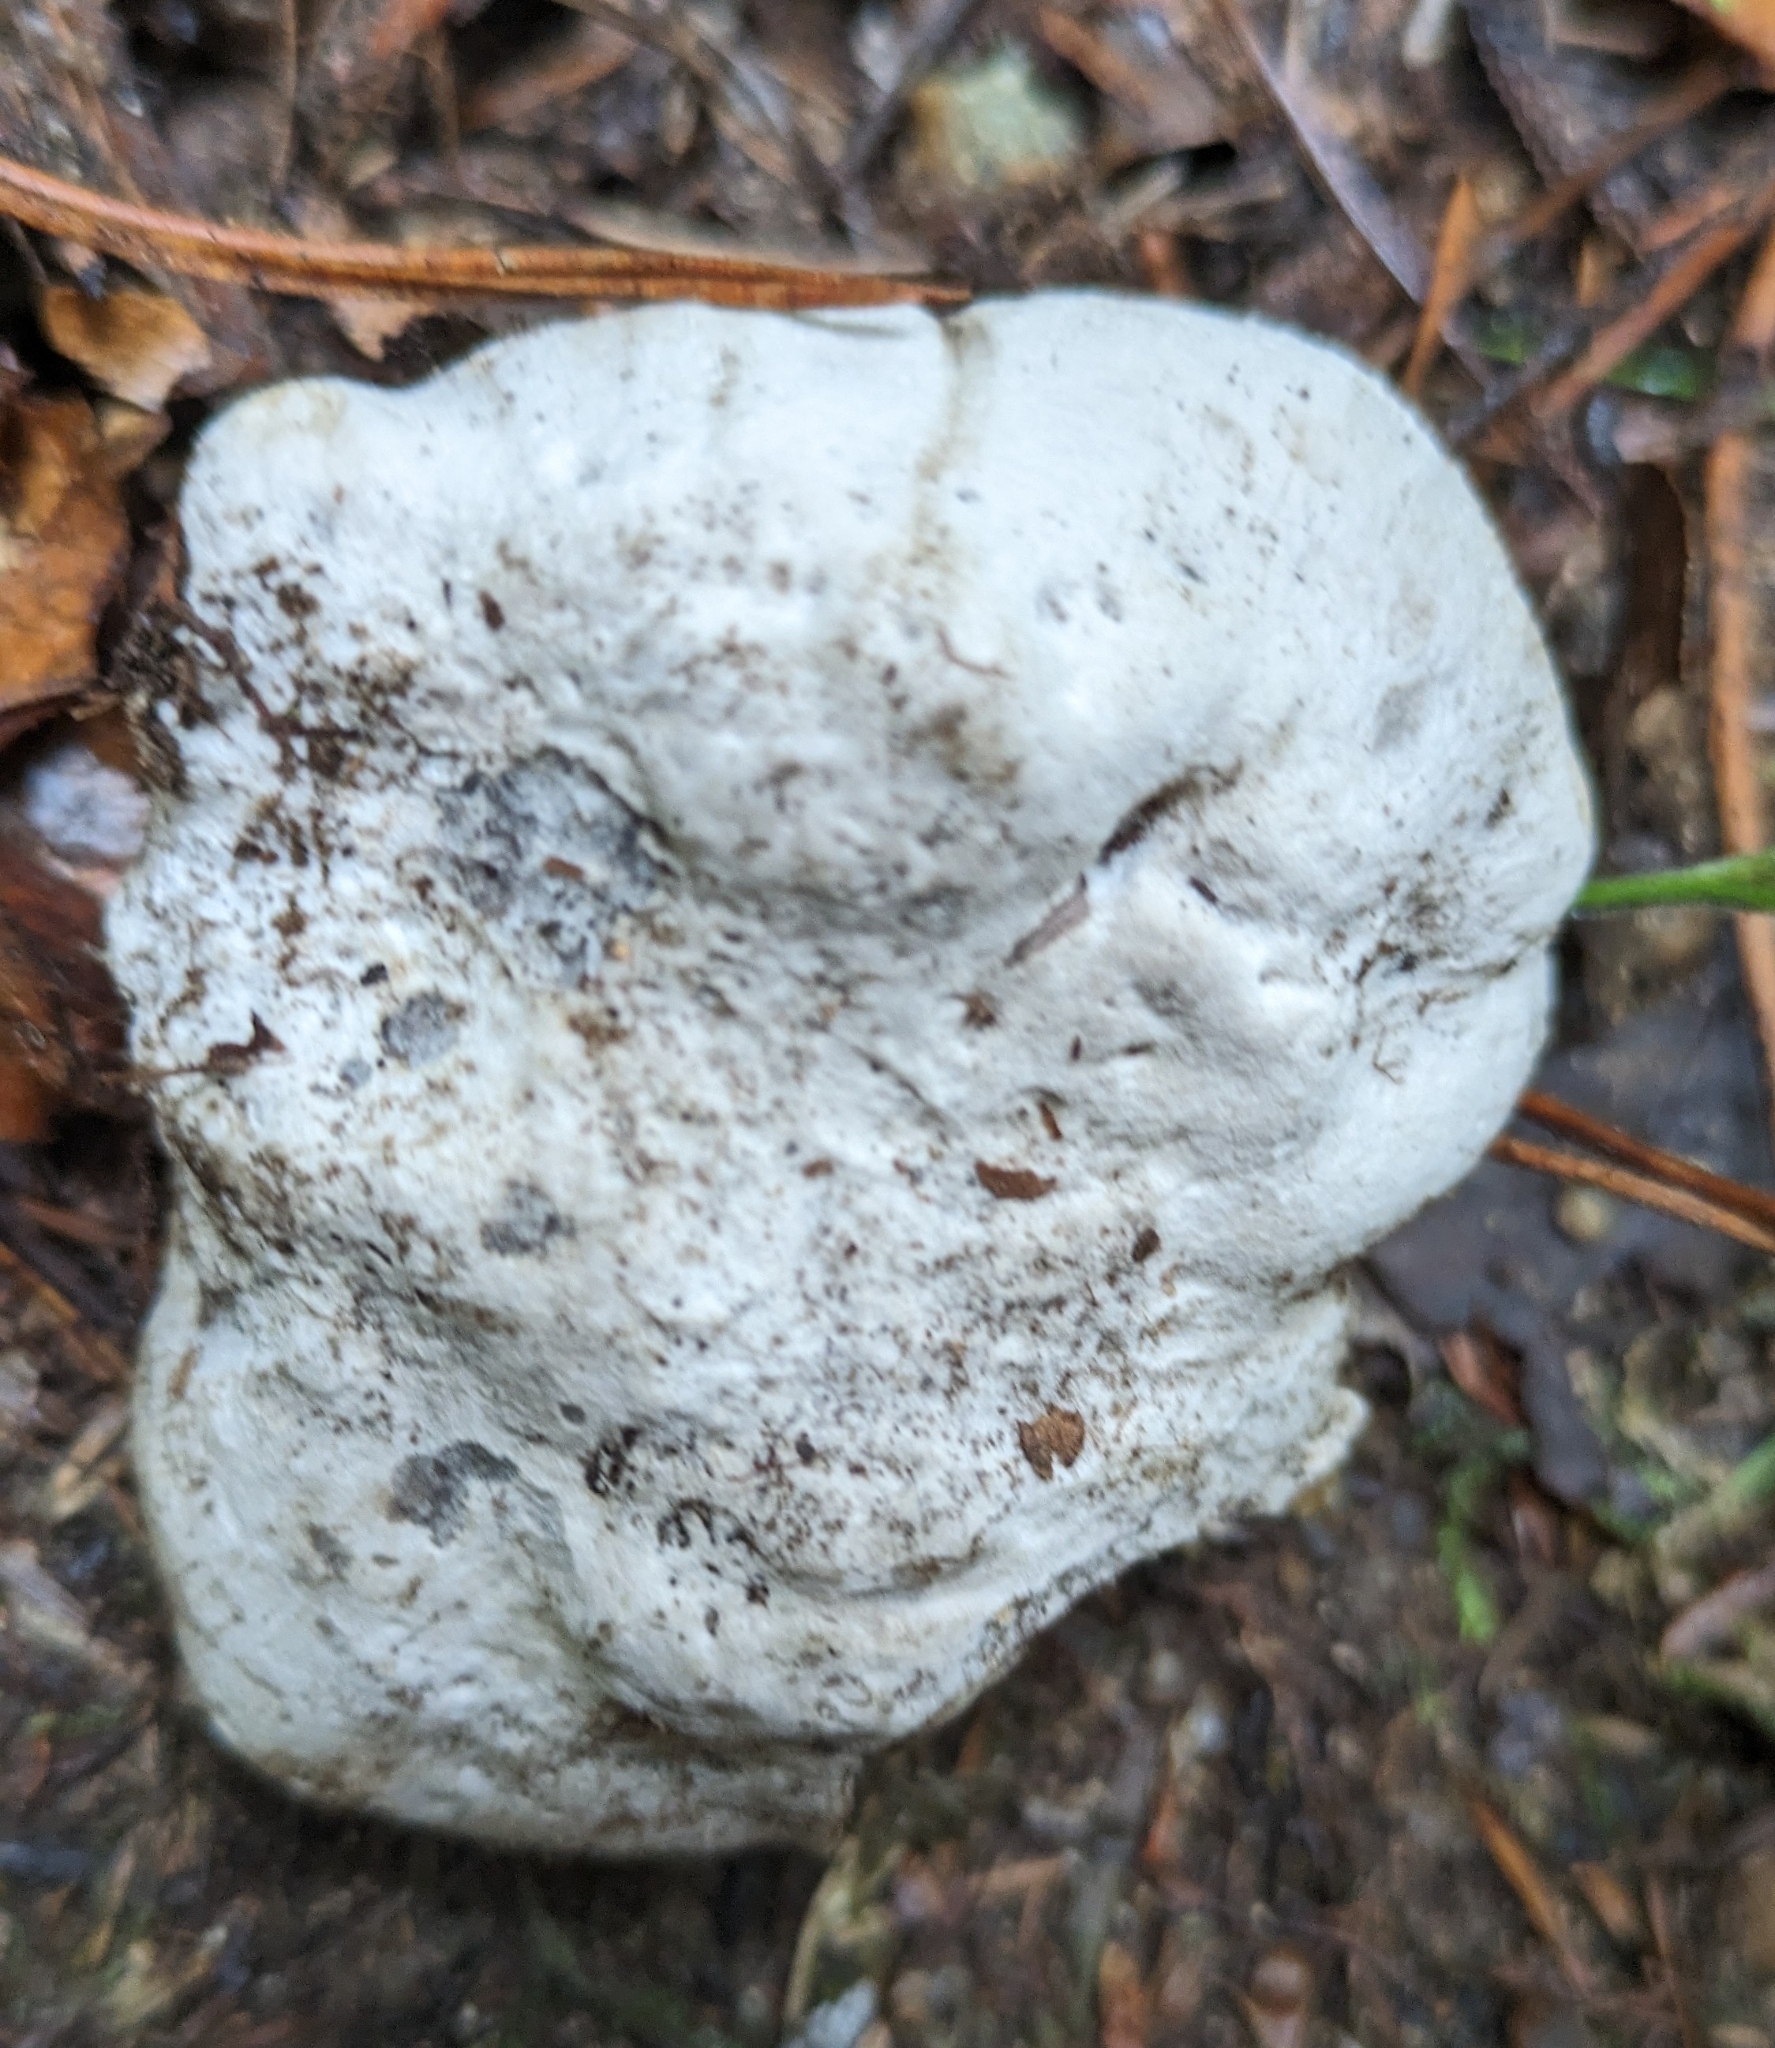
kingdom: Fungi
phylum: Basidiomycota
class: Agaricomycetes
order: Russulales
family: Albatrellaceae
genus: Albatrellus
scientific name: Albatrellus ovinus
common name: Forest lamb
